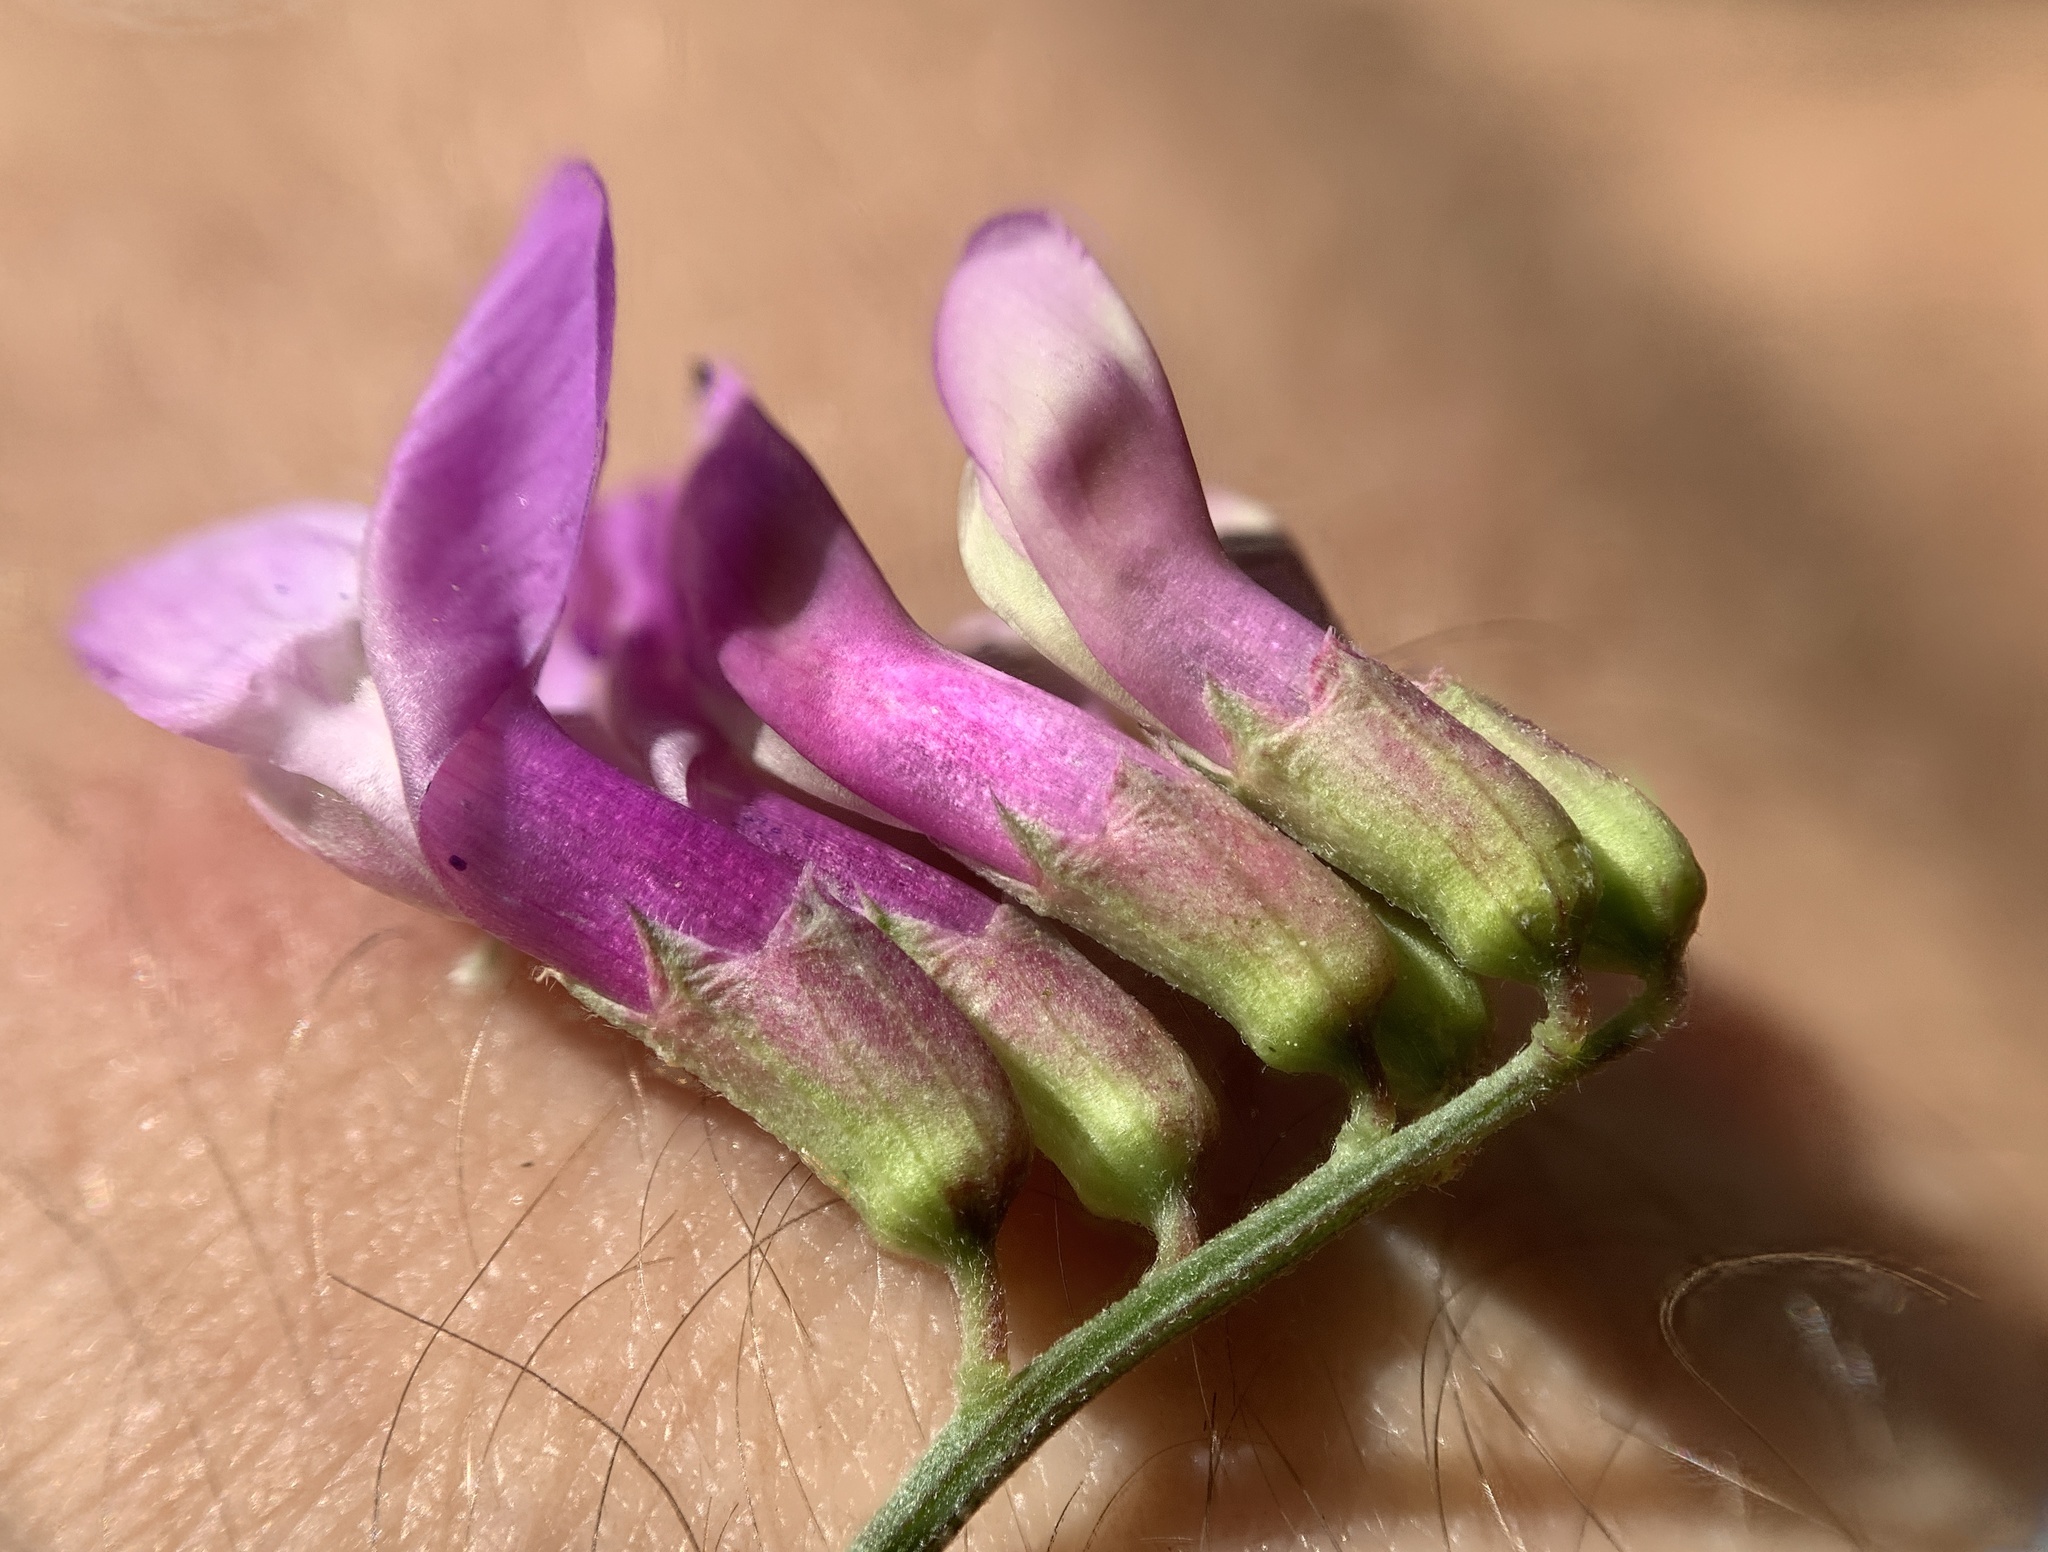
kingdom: Plantae
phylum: Tracheophyta
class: Magnoliopsida
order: Fabales
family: Fabaceae
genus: Vicia
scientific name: Vicia americana
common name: American vetch
